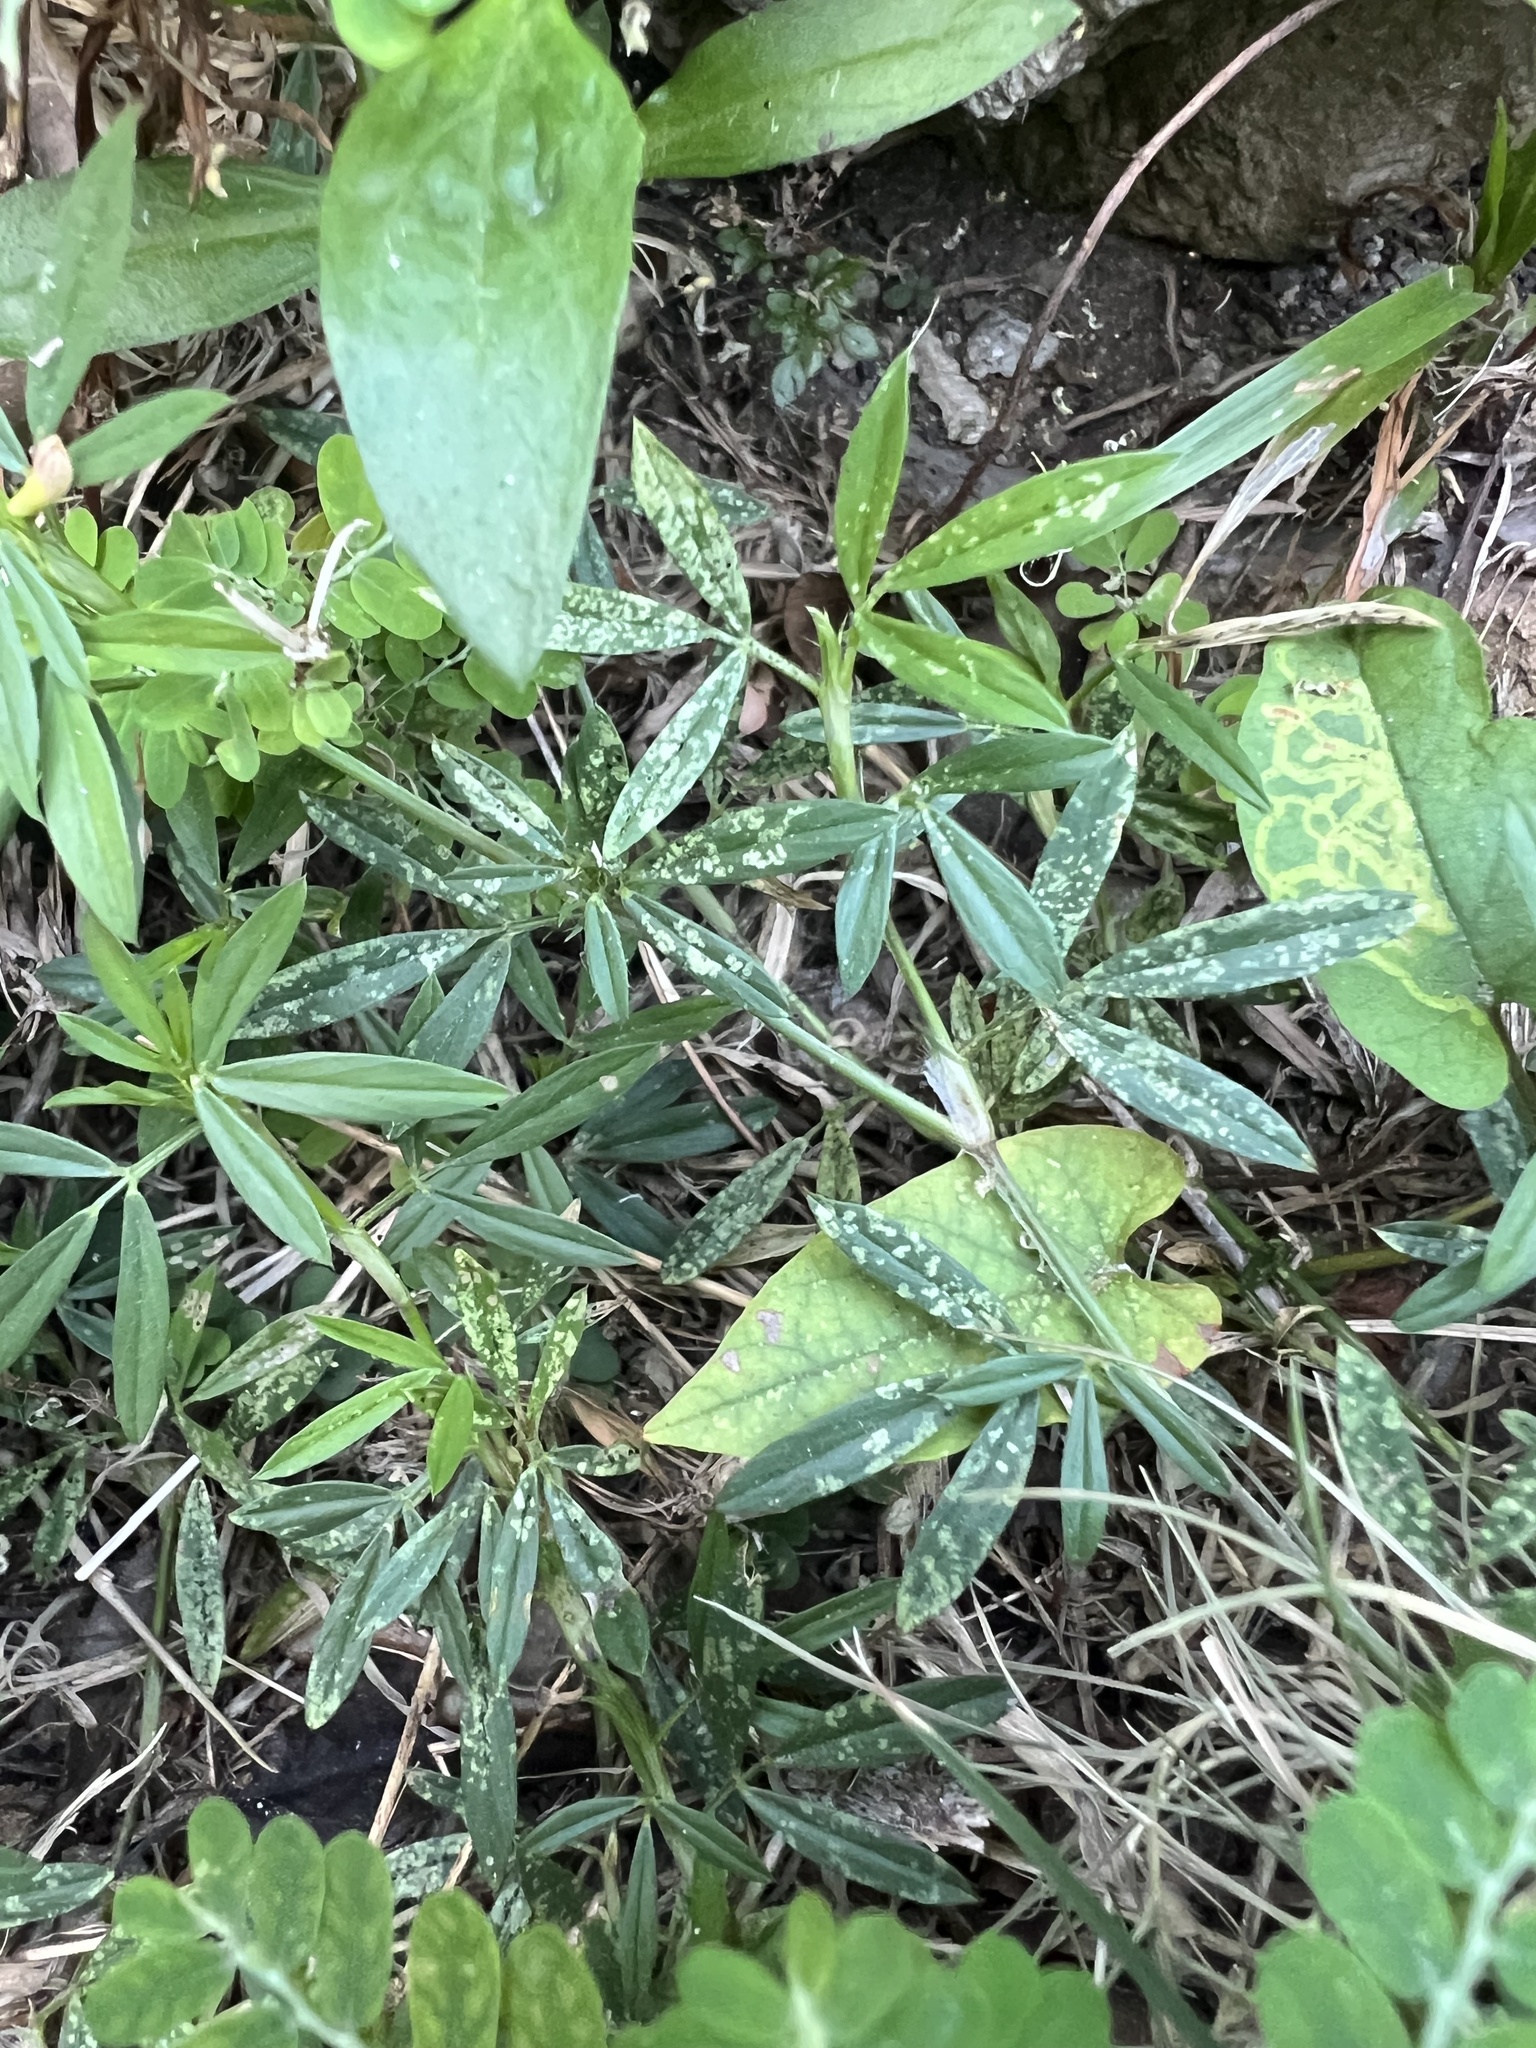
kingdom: Plantae
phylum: Tracheophyta
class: Magnoliopsida
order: Fabales
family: Fabaceae
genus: Stylosanthes
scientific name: Stylosanthes hamata
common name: Cheesytoes
